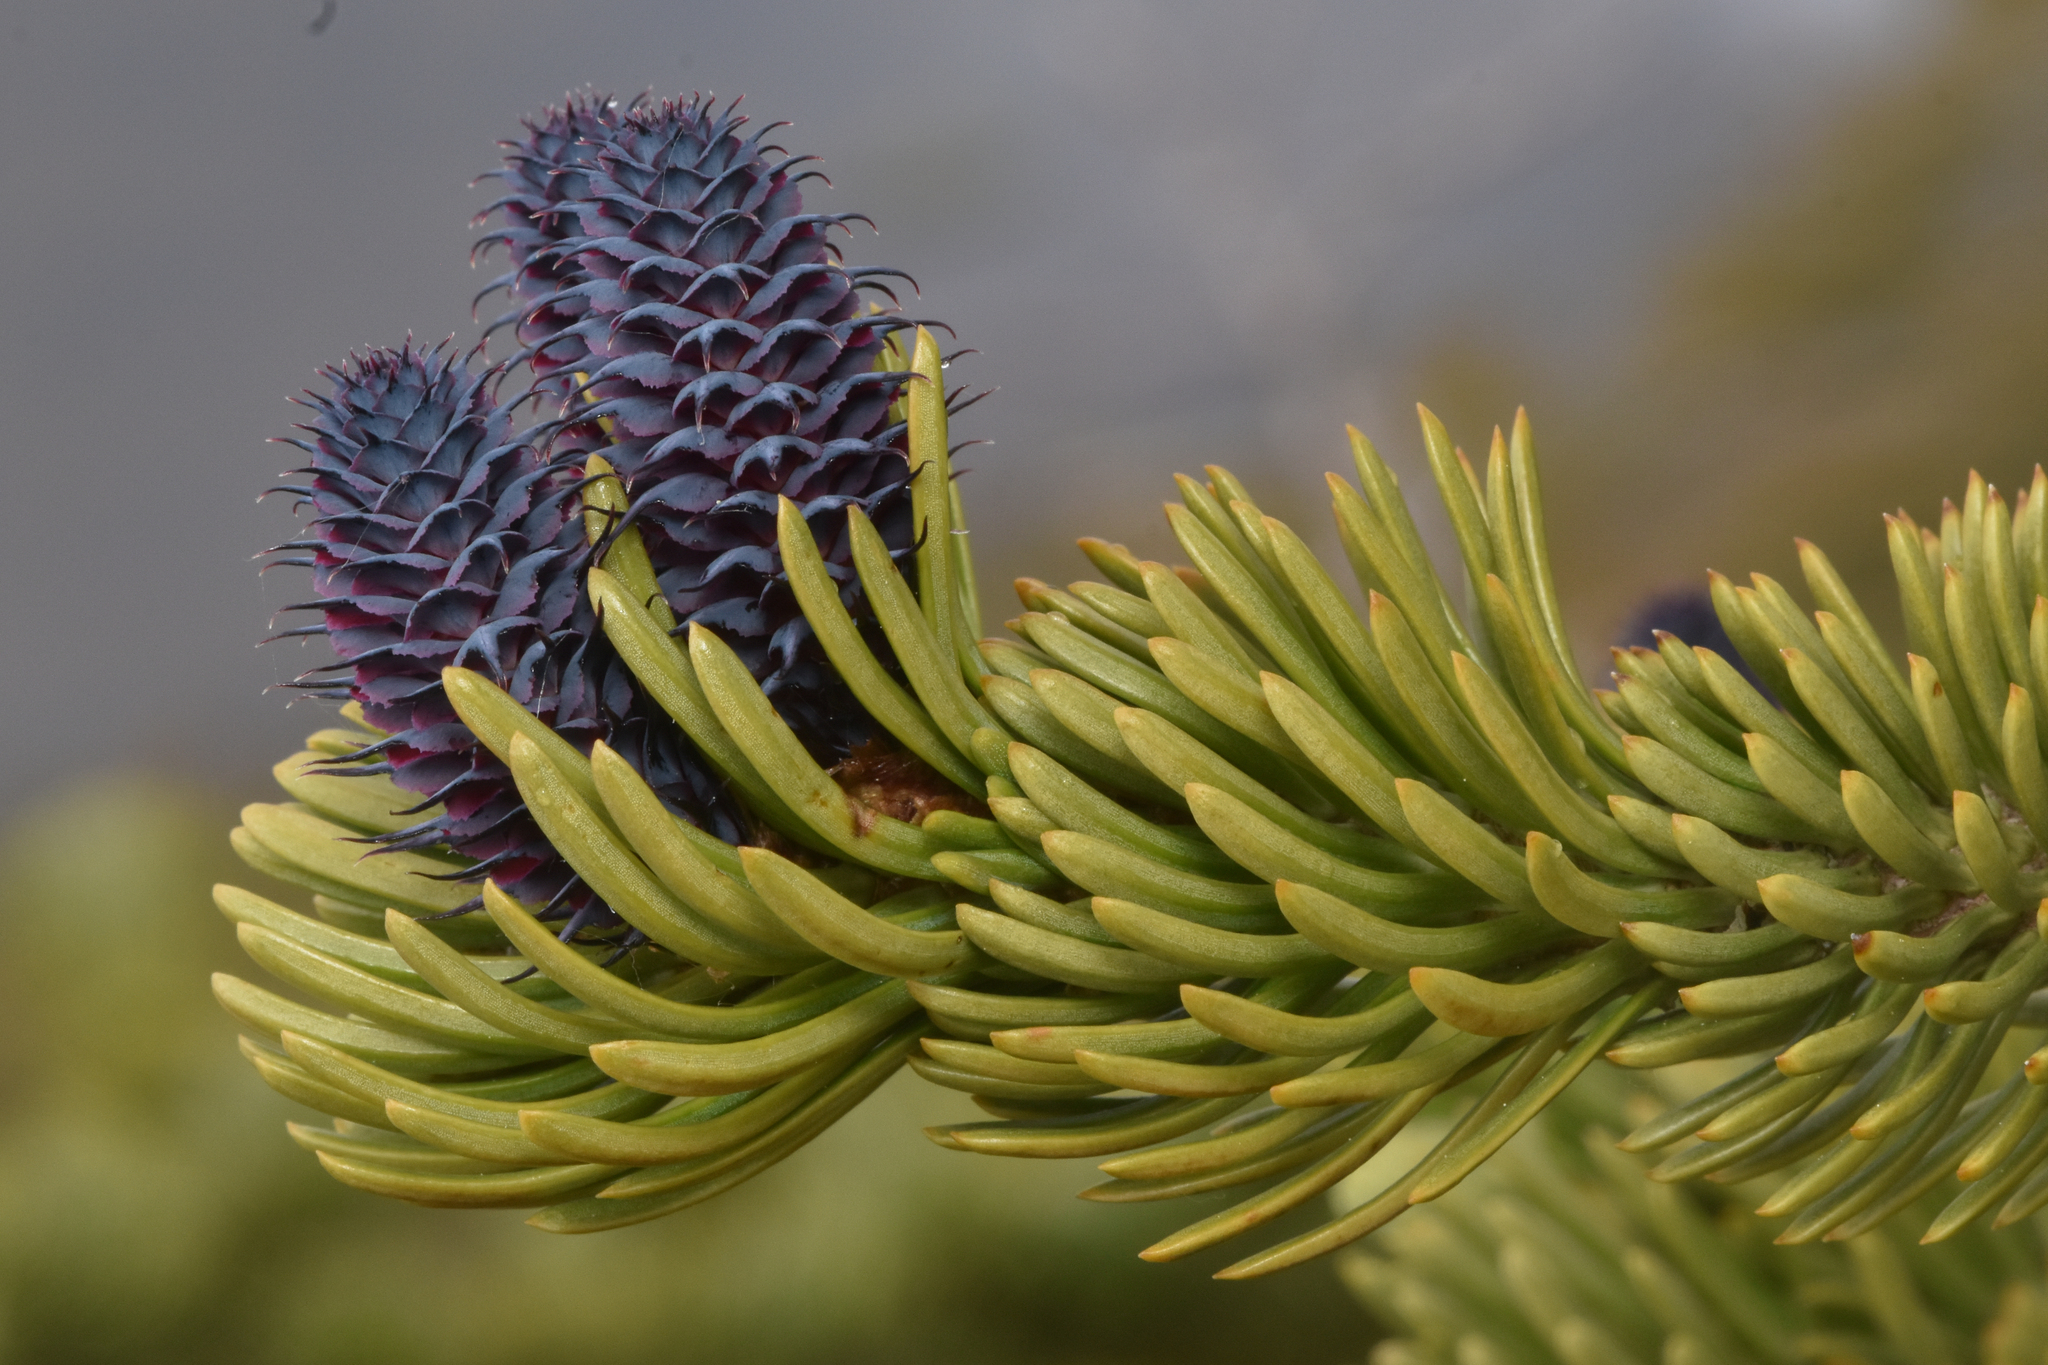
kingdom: Plantae
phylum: Tracheophyta
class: Pinopsida
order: Pinales
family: Pinaceae
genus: Abies
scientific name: Abies lasiocarpa
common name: Subalpine fir
